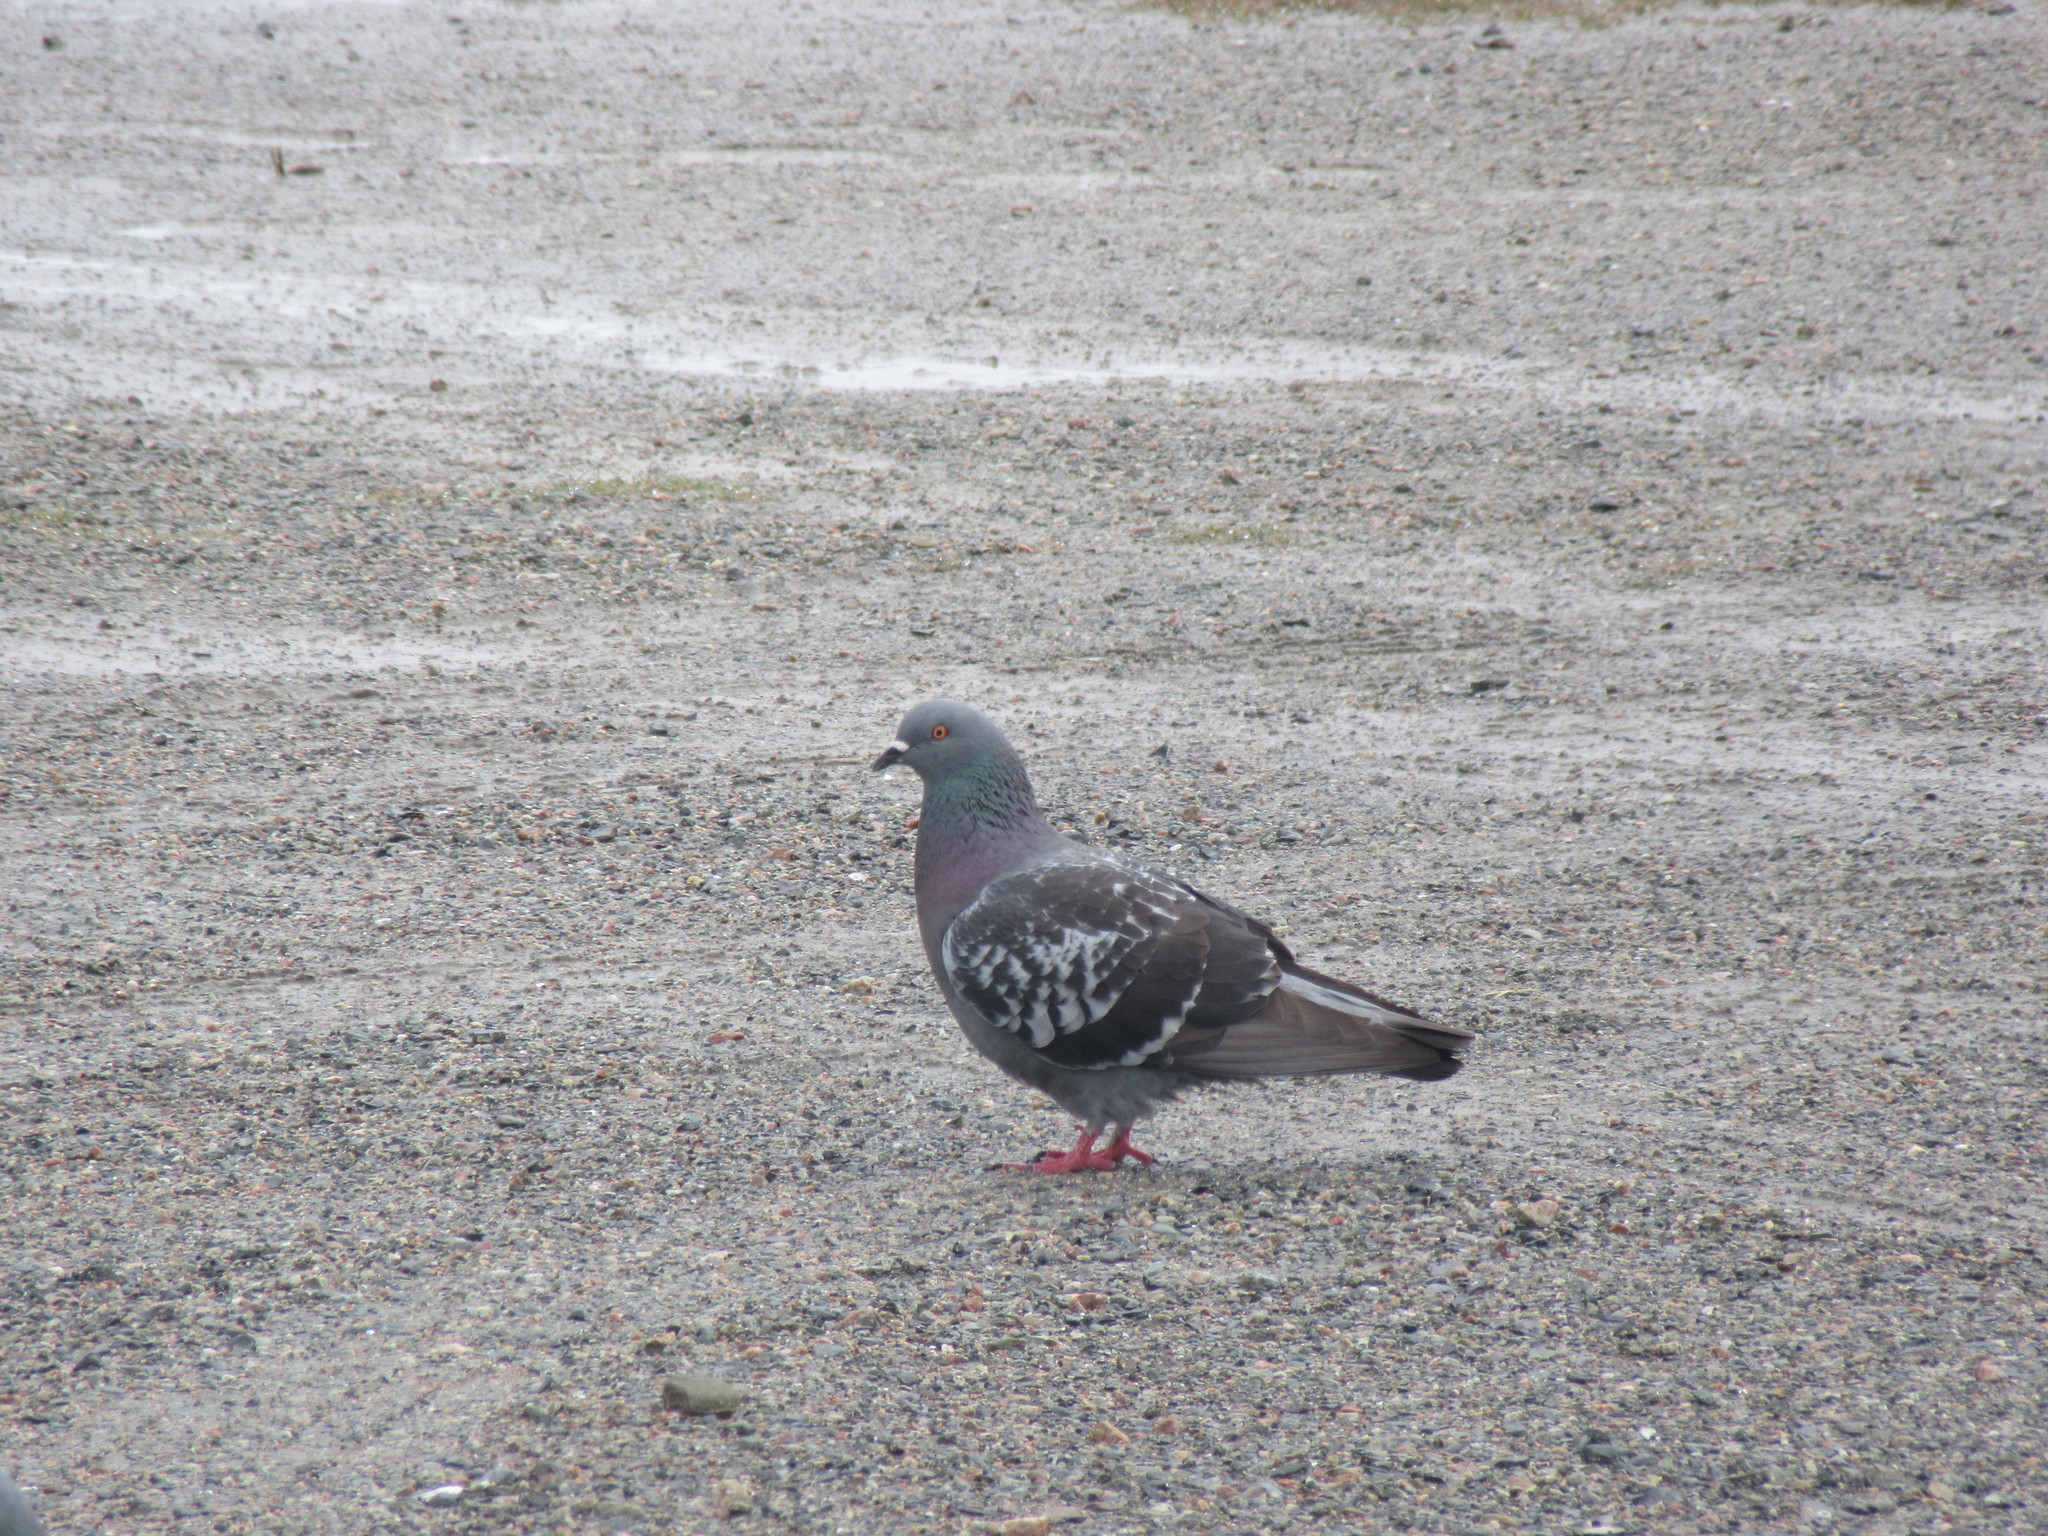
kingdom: Animalia
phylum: Chordata
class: Aves
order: Columbiformes
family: Columbidae
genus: Columba
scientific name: Columba livia
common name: Rock pigeon
